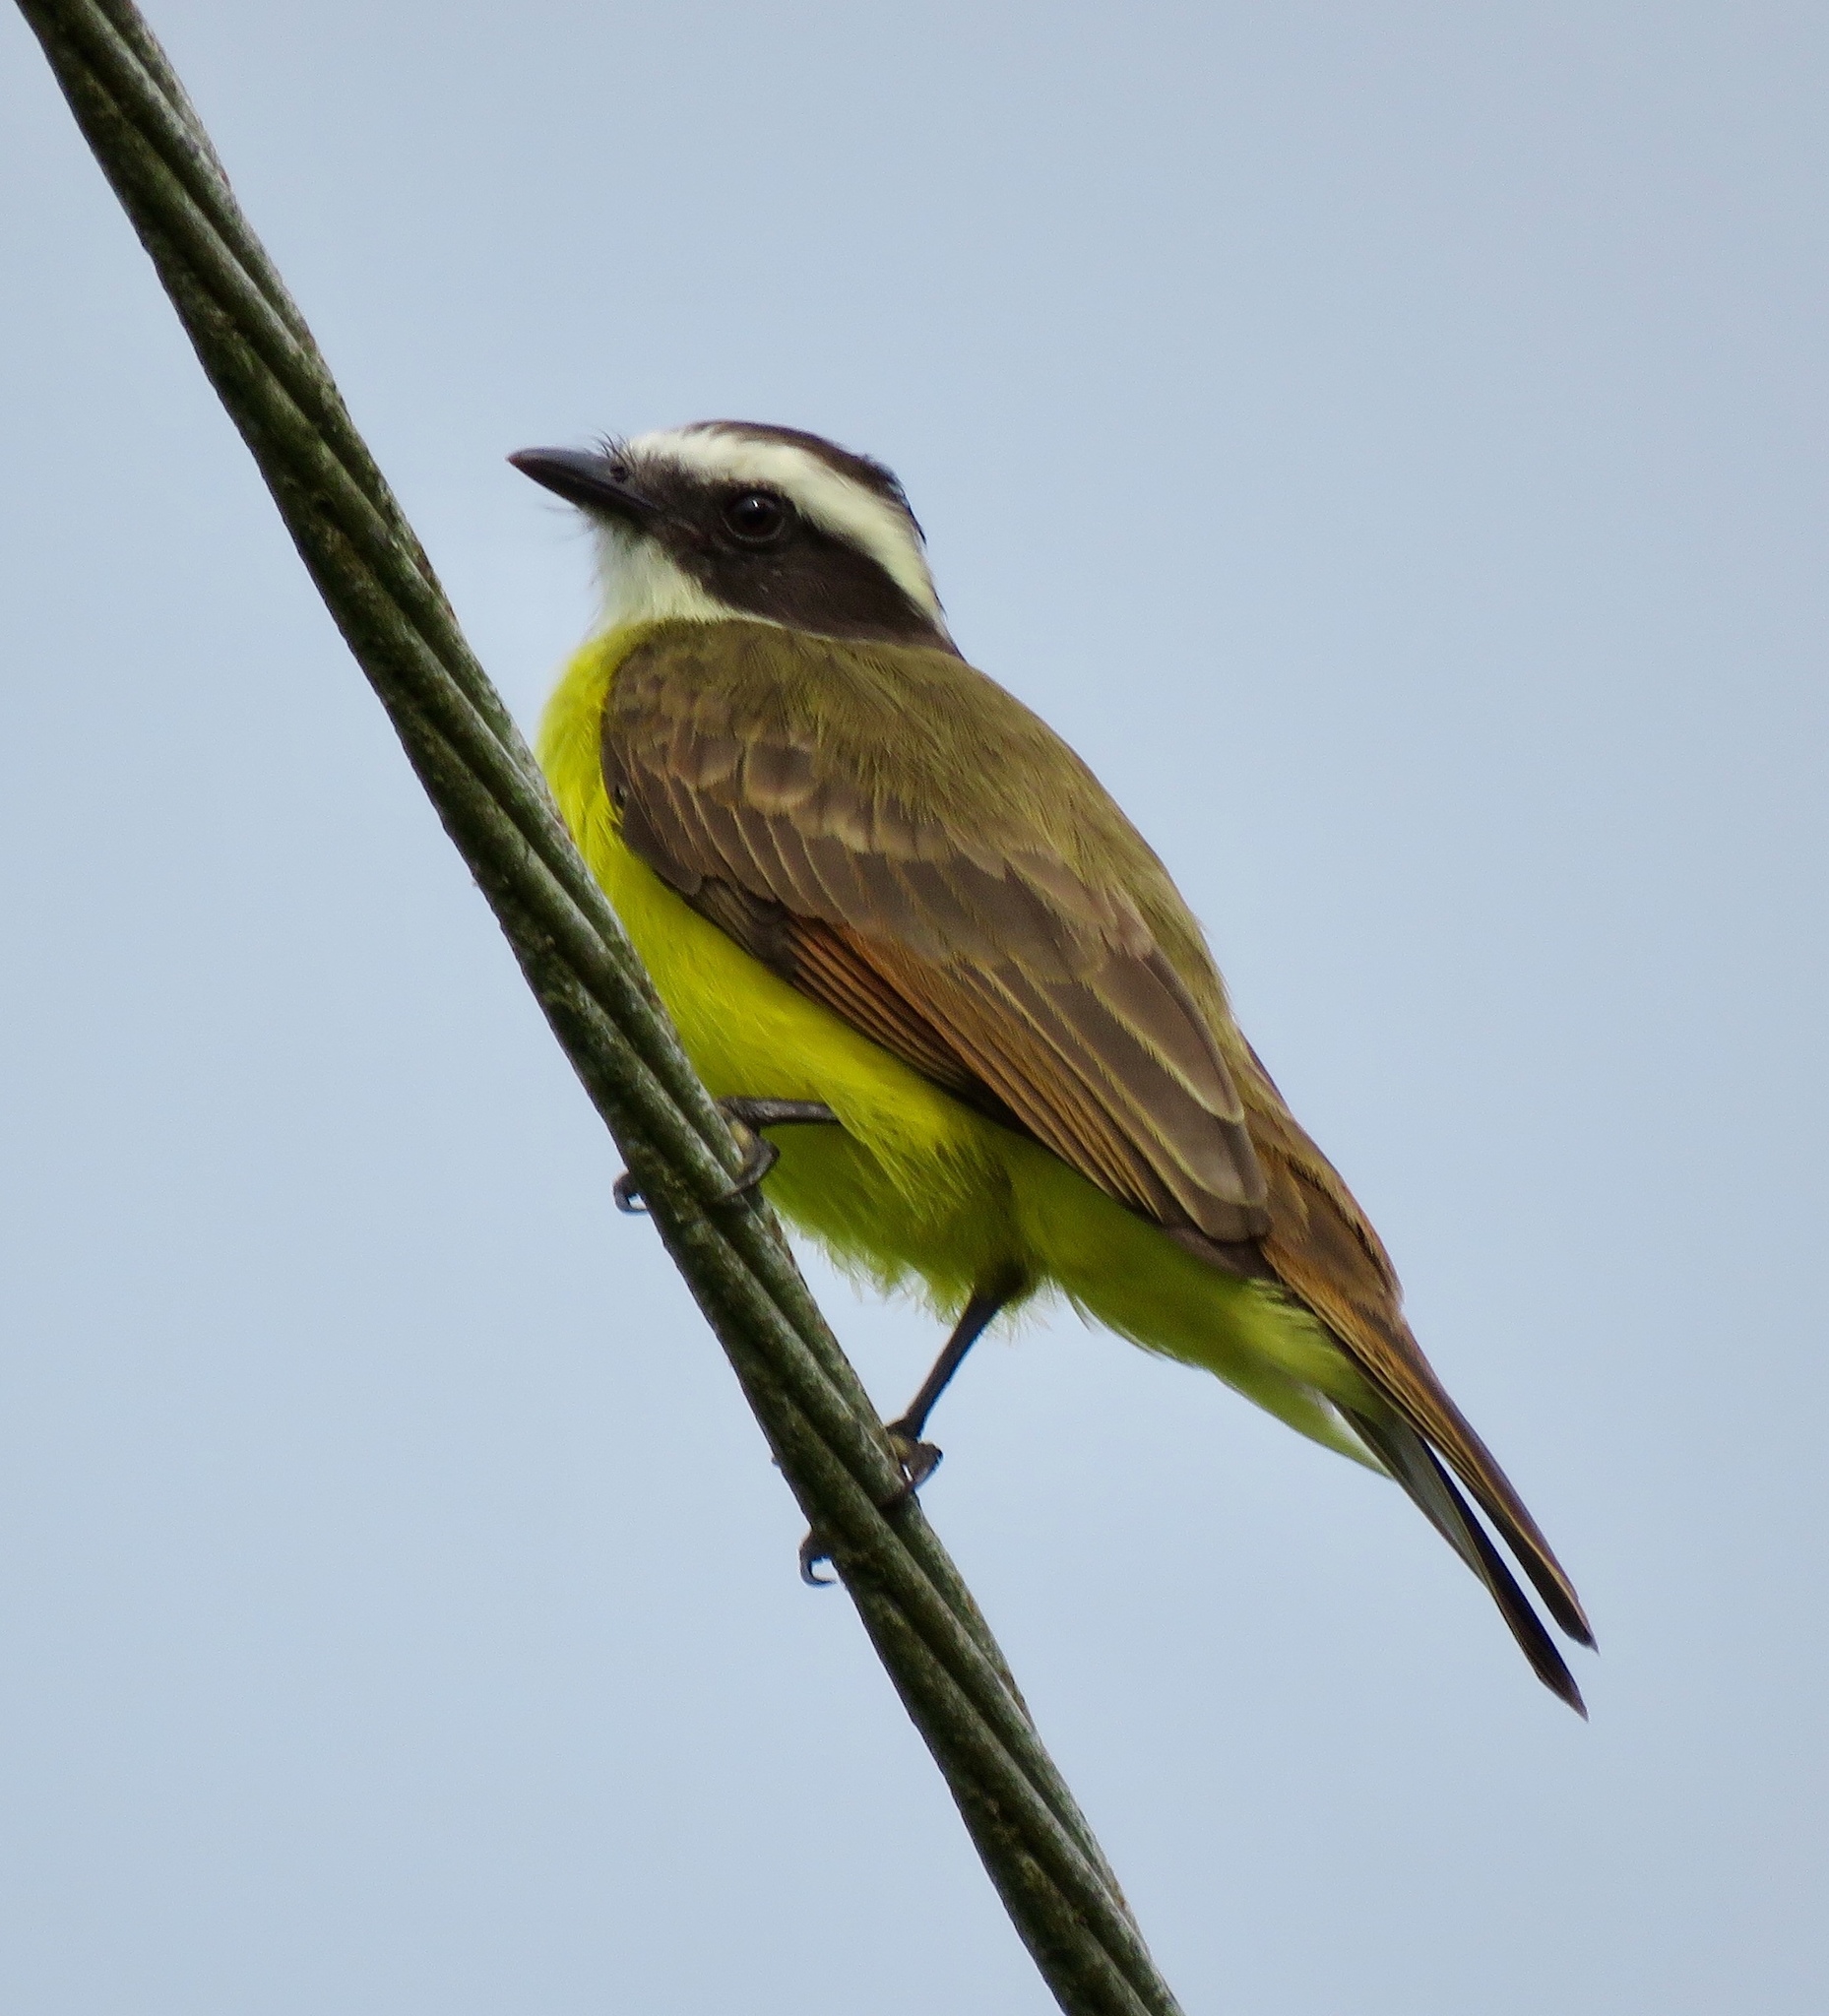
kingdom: Animalia
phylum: Chordata
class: Aves
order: Passeriformes
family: Tyrannidae
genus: Myiozetetes
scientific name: Myiozetetes cayanensis
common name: Rusty-margined flycatcher
